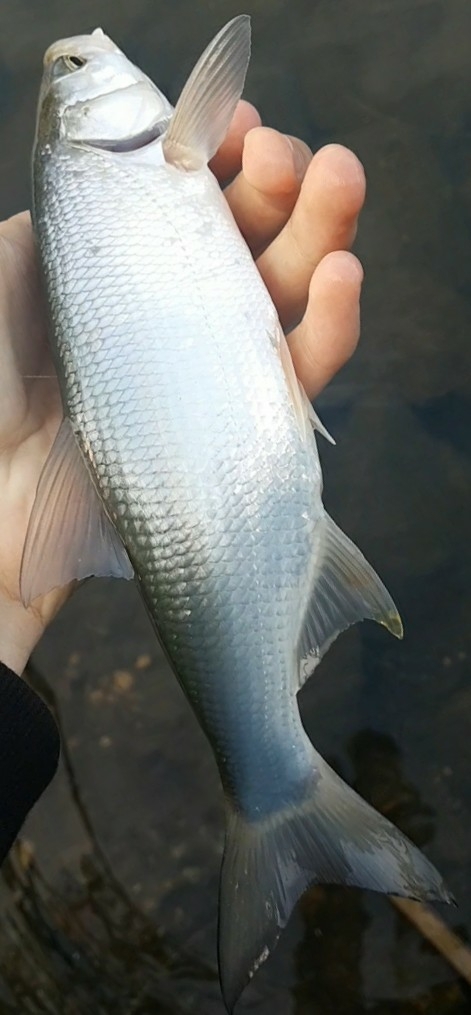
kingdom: Animalia
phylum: Chordata
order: Cypriniformes
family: Cyprinidae
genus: Leuciscus
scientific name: Leuciscus aspius
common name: Asp
